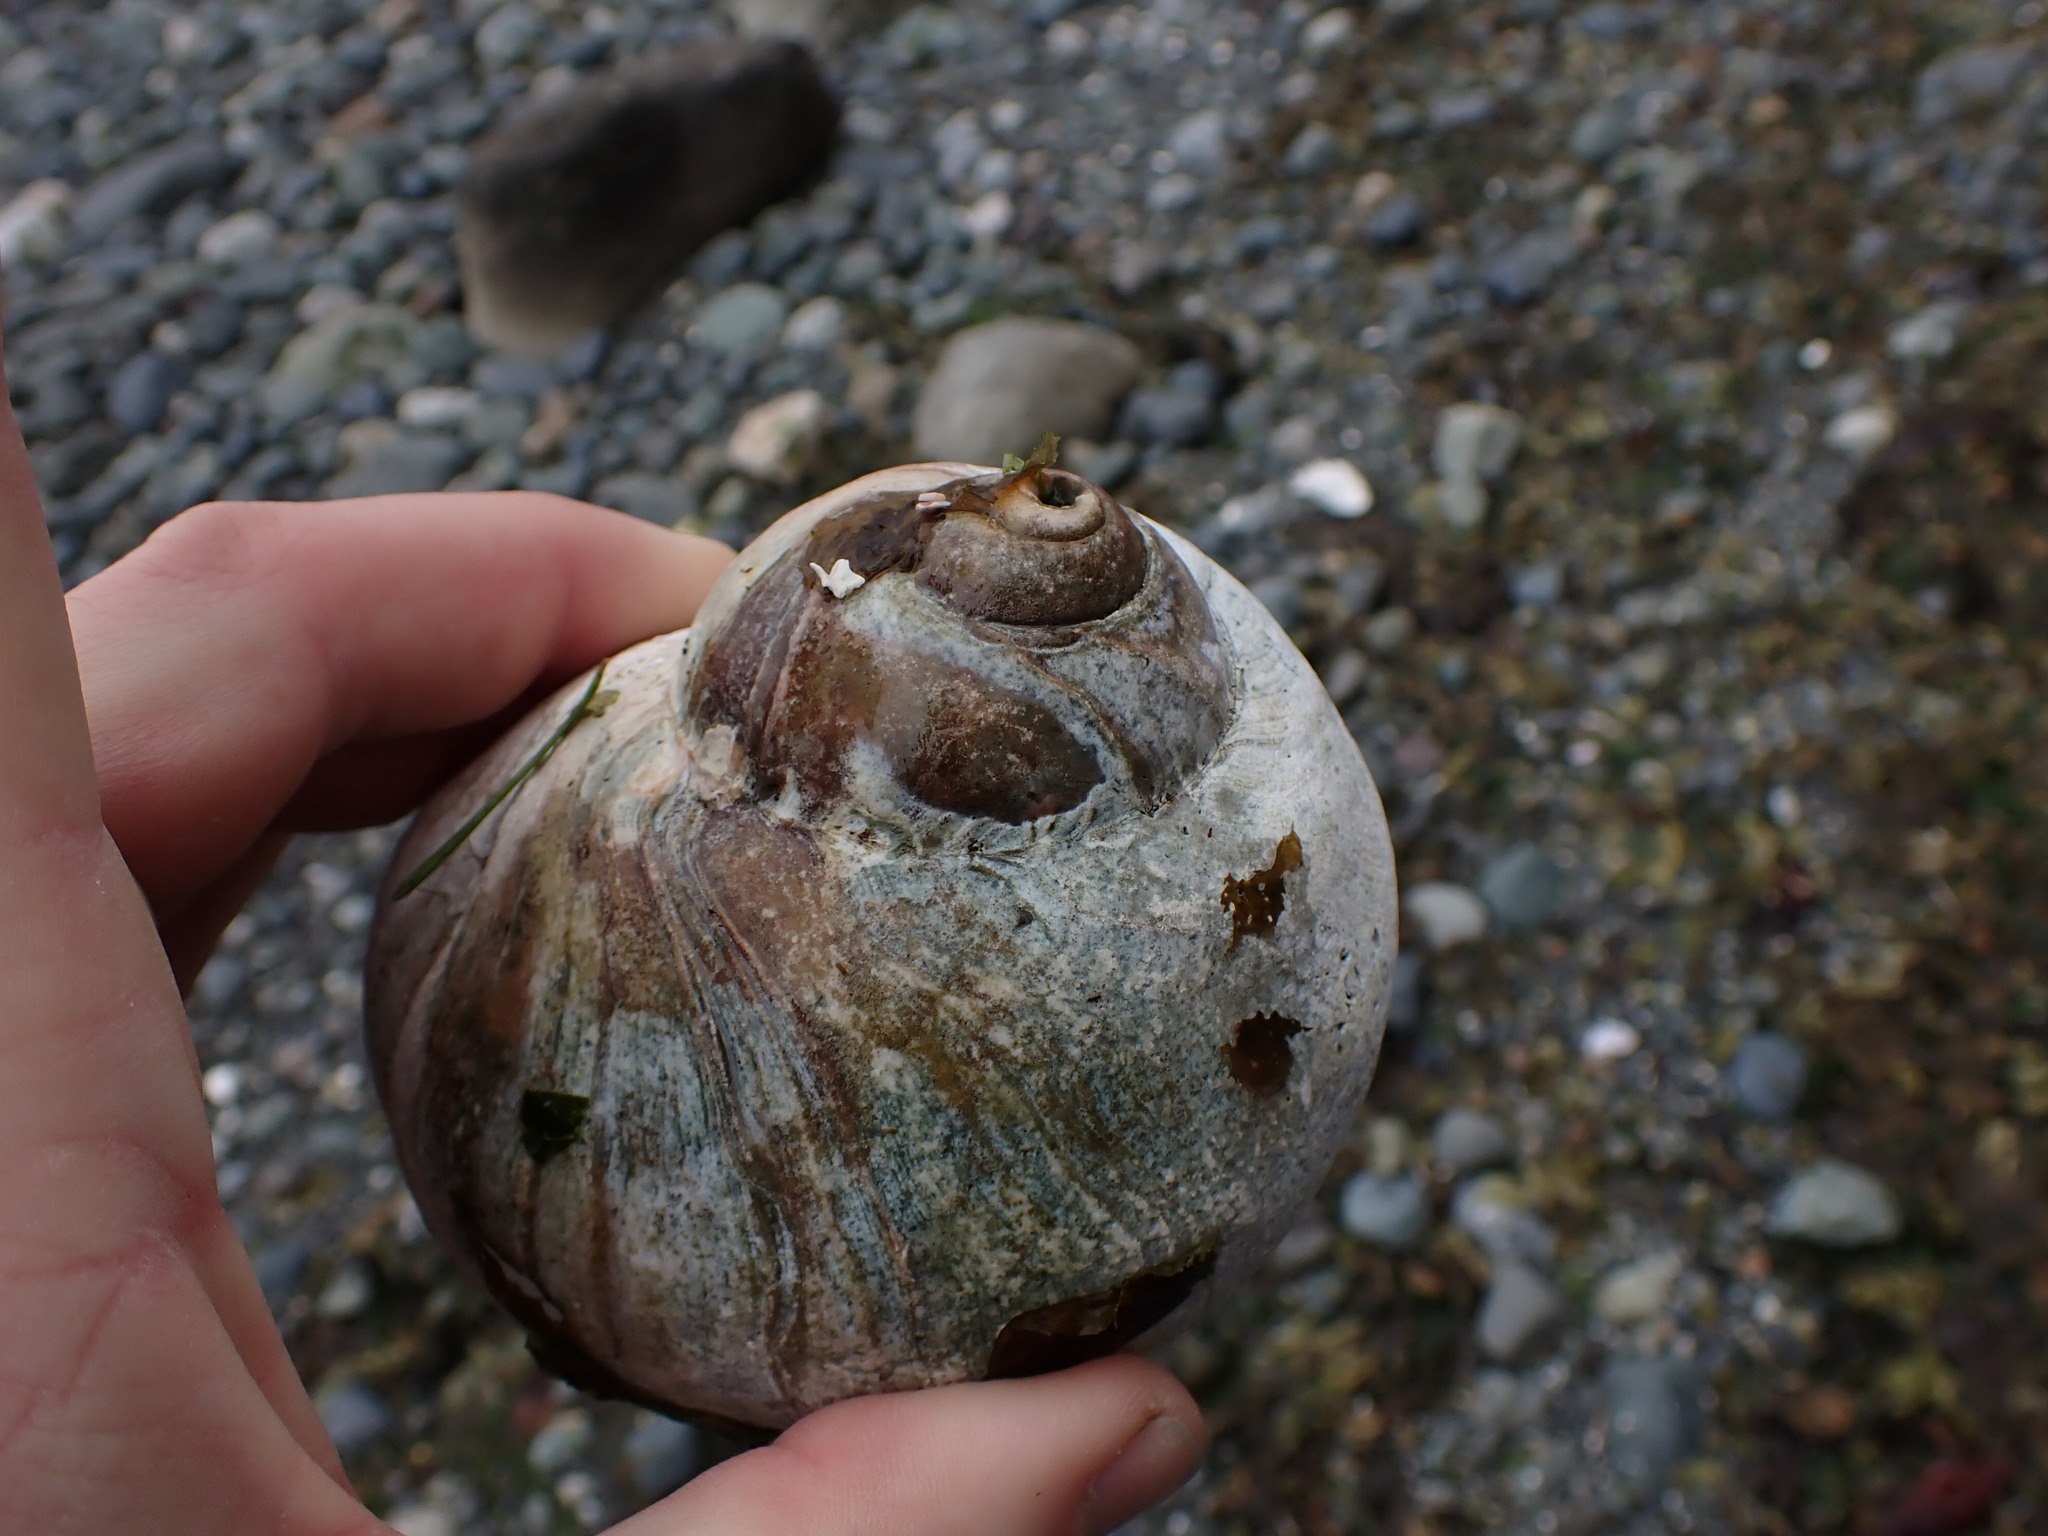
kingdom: Animalia
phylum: Mollusca
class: Gastropoda
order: Littorinimorpha
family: Naticidae
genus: Neverita
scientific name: Neverita lewisii
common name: Lewis' moonsnail
